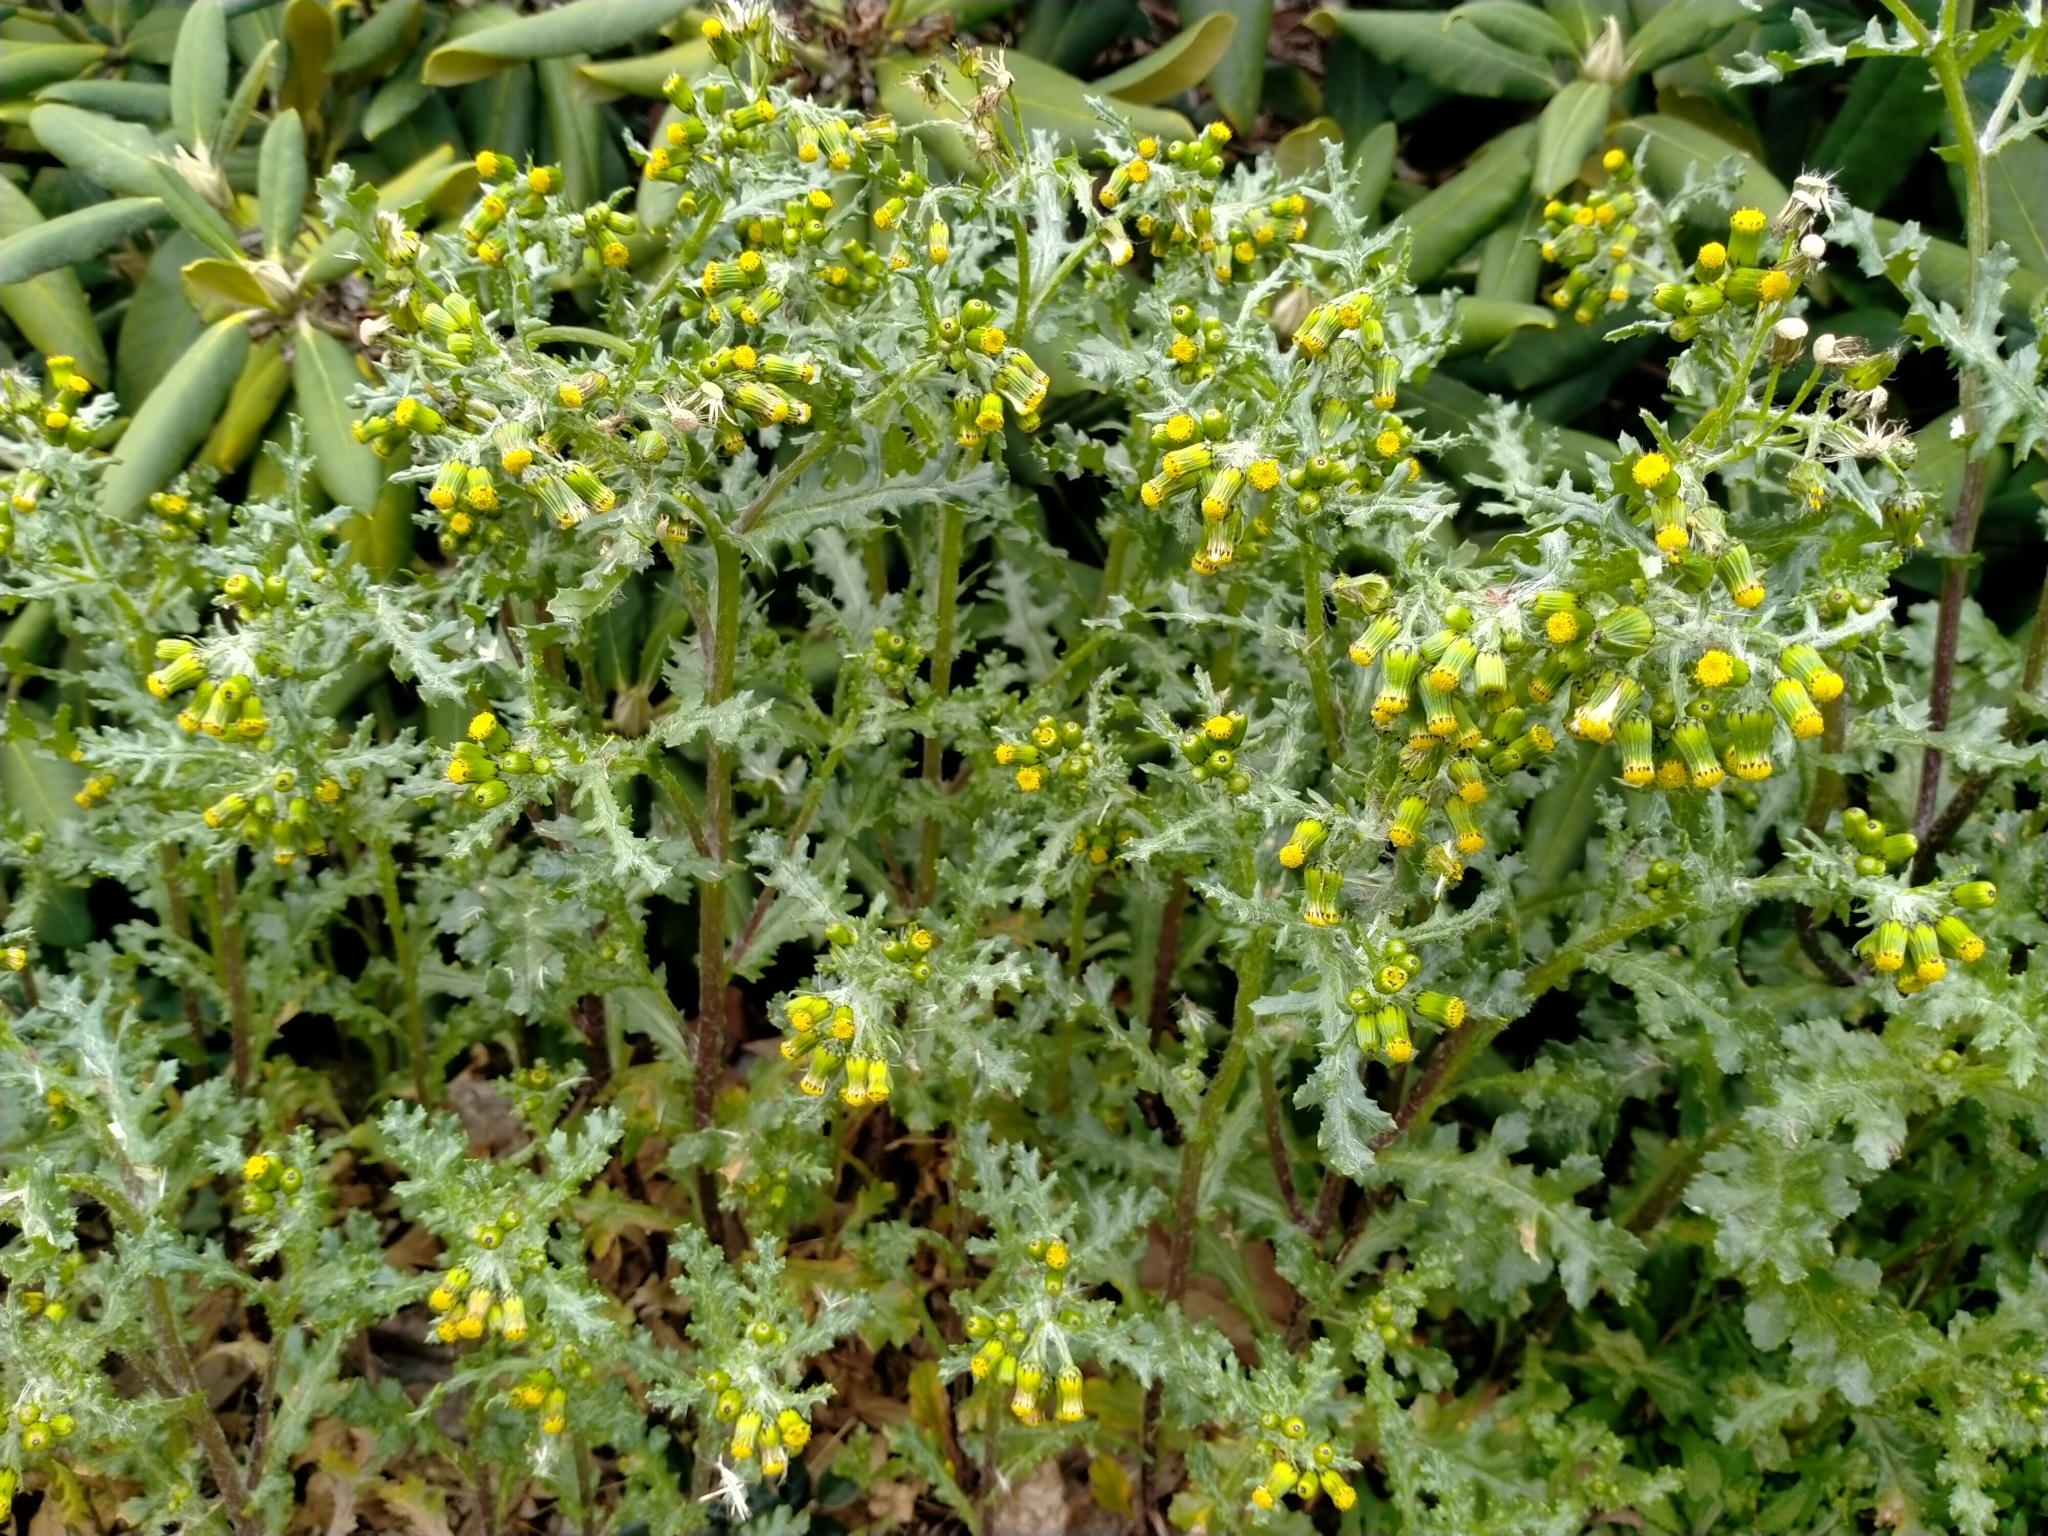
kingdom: Plantae
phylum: Tracheophyta
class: Magnoliopsida
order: Asterales
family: Asteraceae
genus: Senecio
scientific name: Senecio vulgaris
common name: Old-man-in-the-spring
